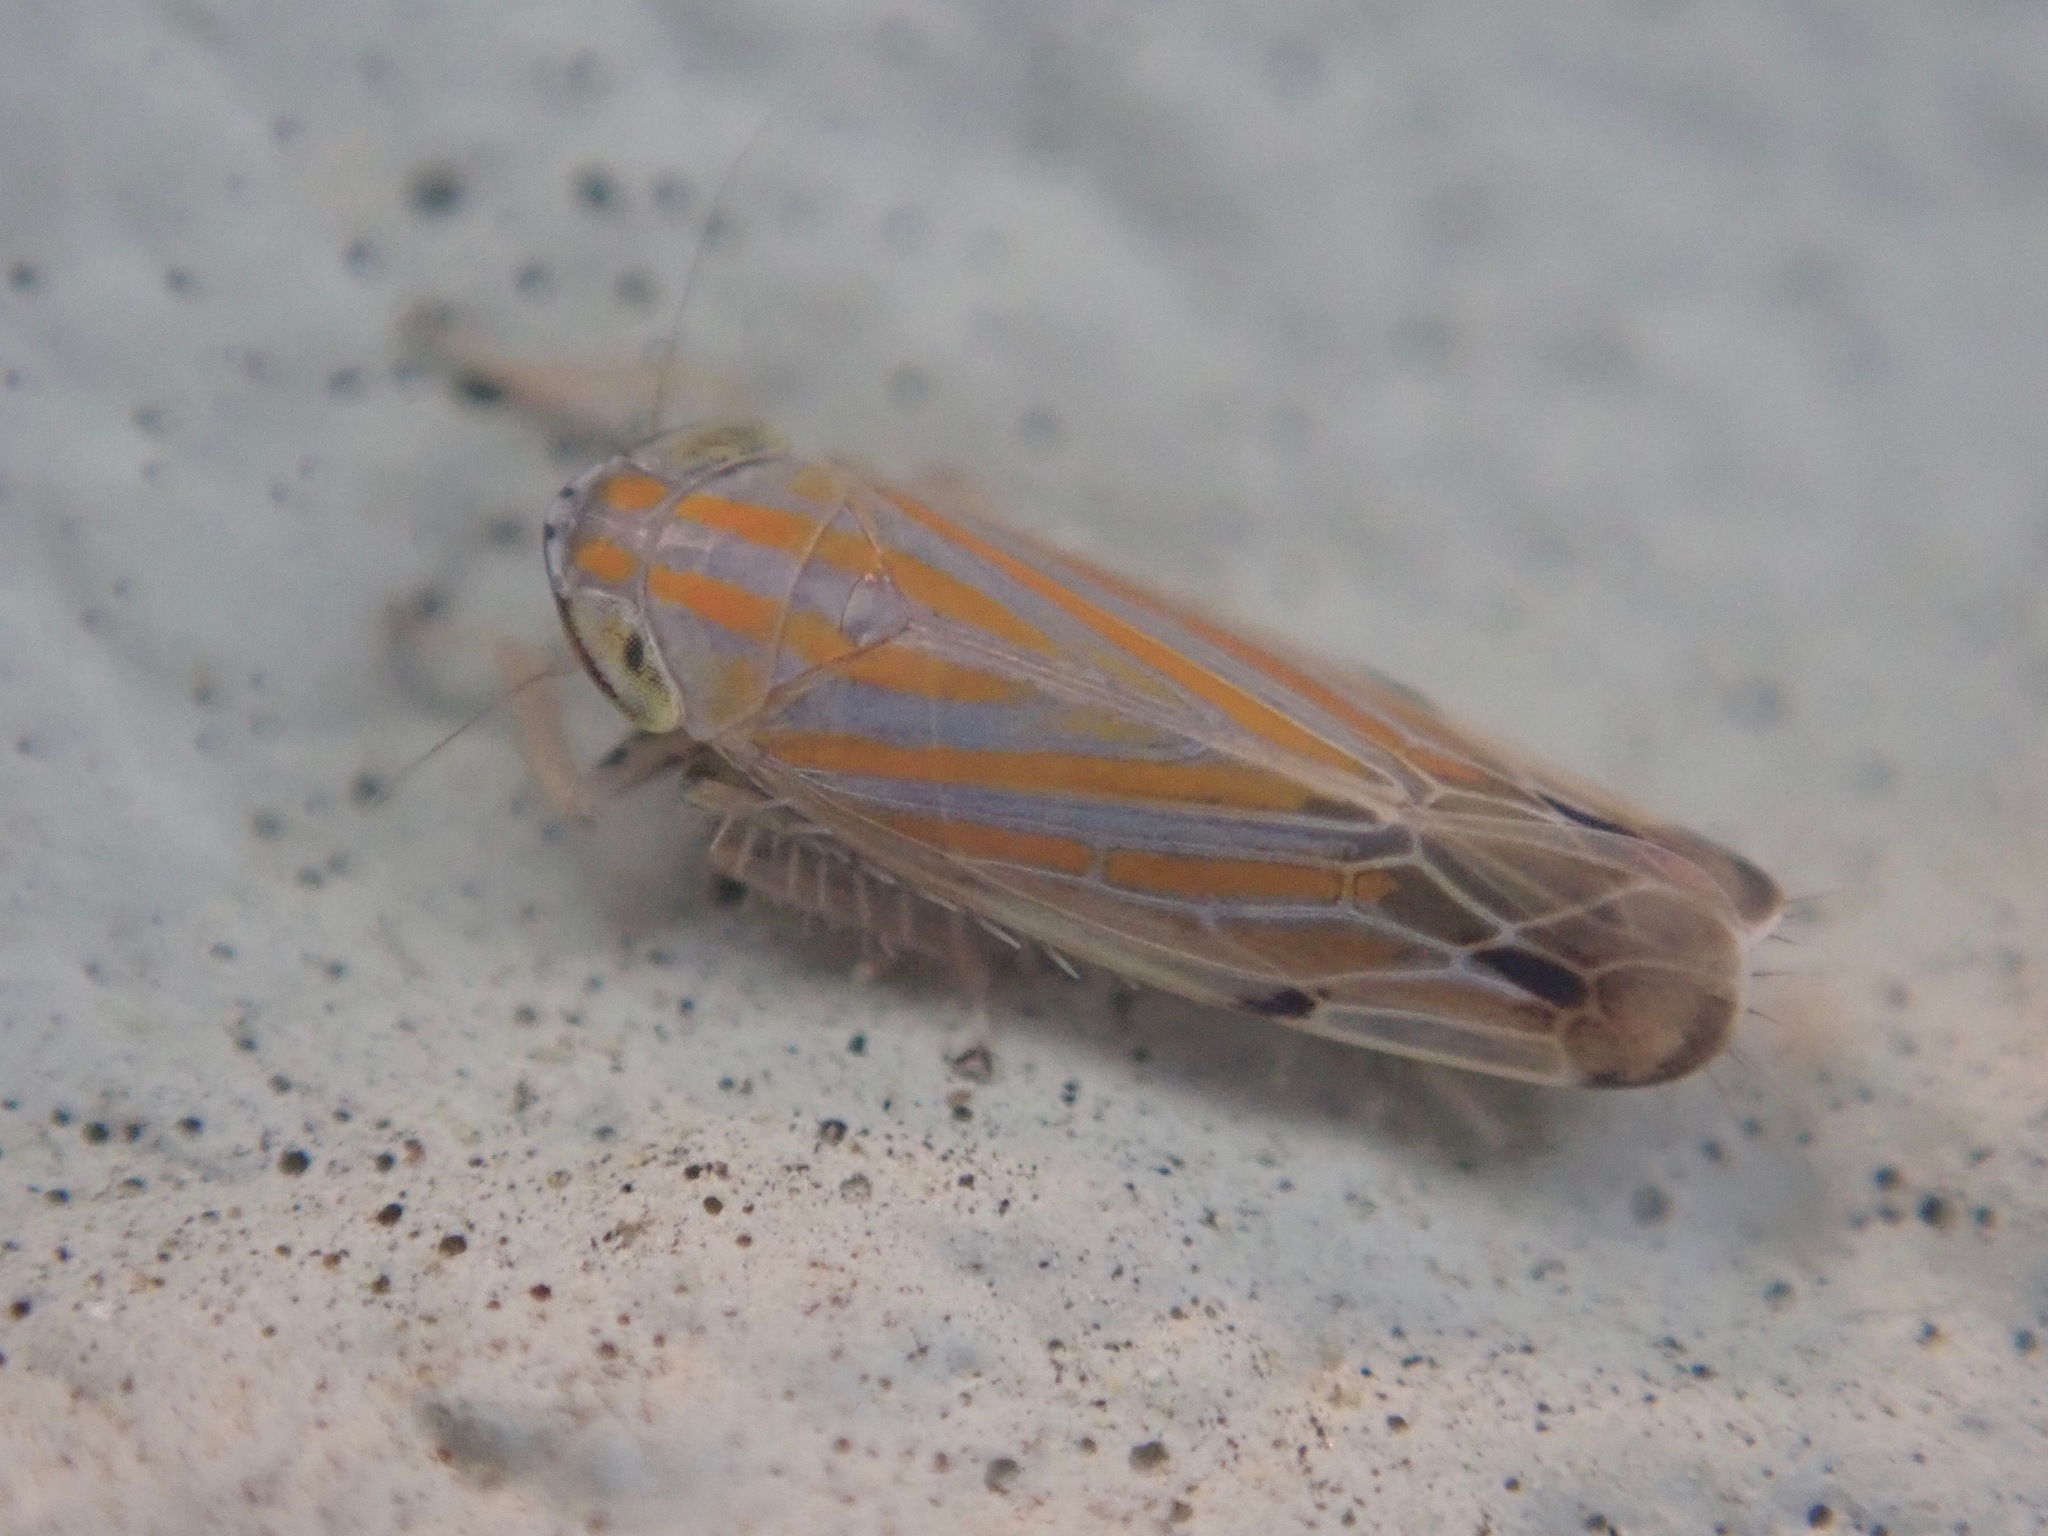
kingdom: Animalia
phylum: Arthropoda
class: Insecta
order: Hemiptera
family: Cicadellidae
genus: Deltanus
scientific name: Deltanus texanus
